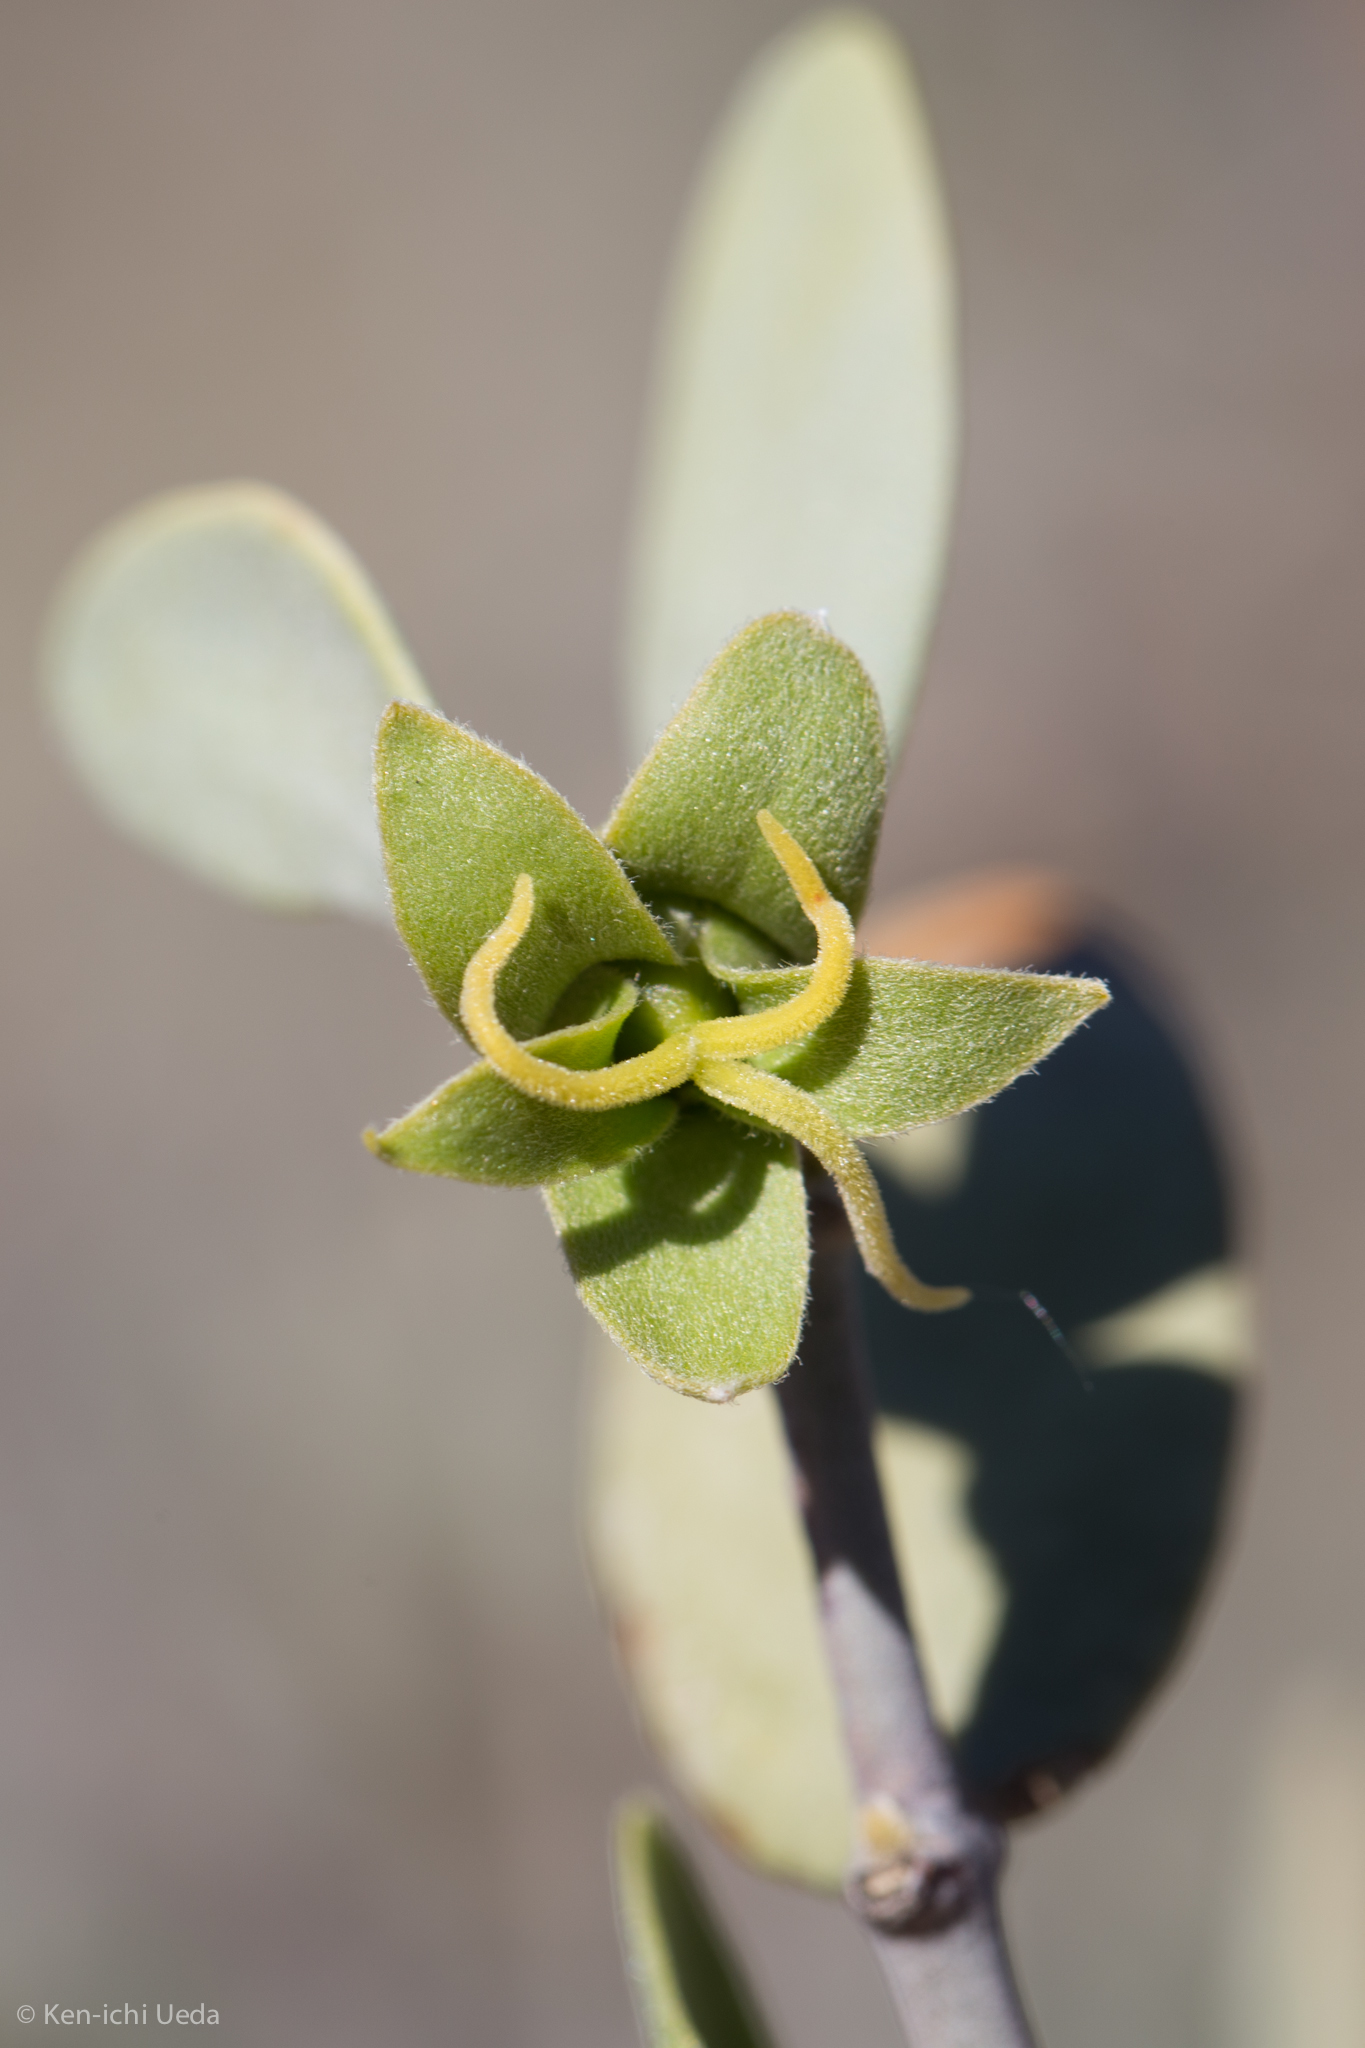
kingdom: Plantae
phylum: Tracheophyta
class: Magnoliopsida
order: Caryophyllales
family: Simmondsiaceae
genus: Simmondsia
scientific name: Simmondsia chinensis
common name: Jojoba
